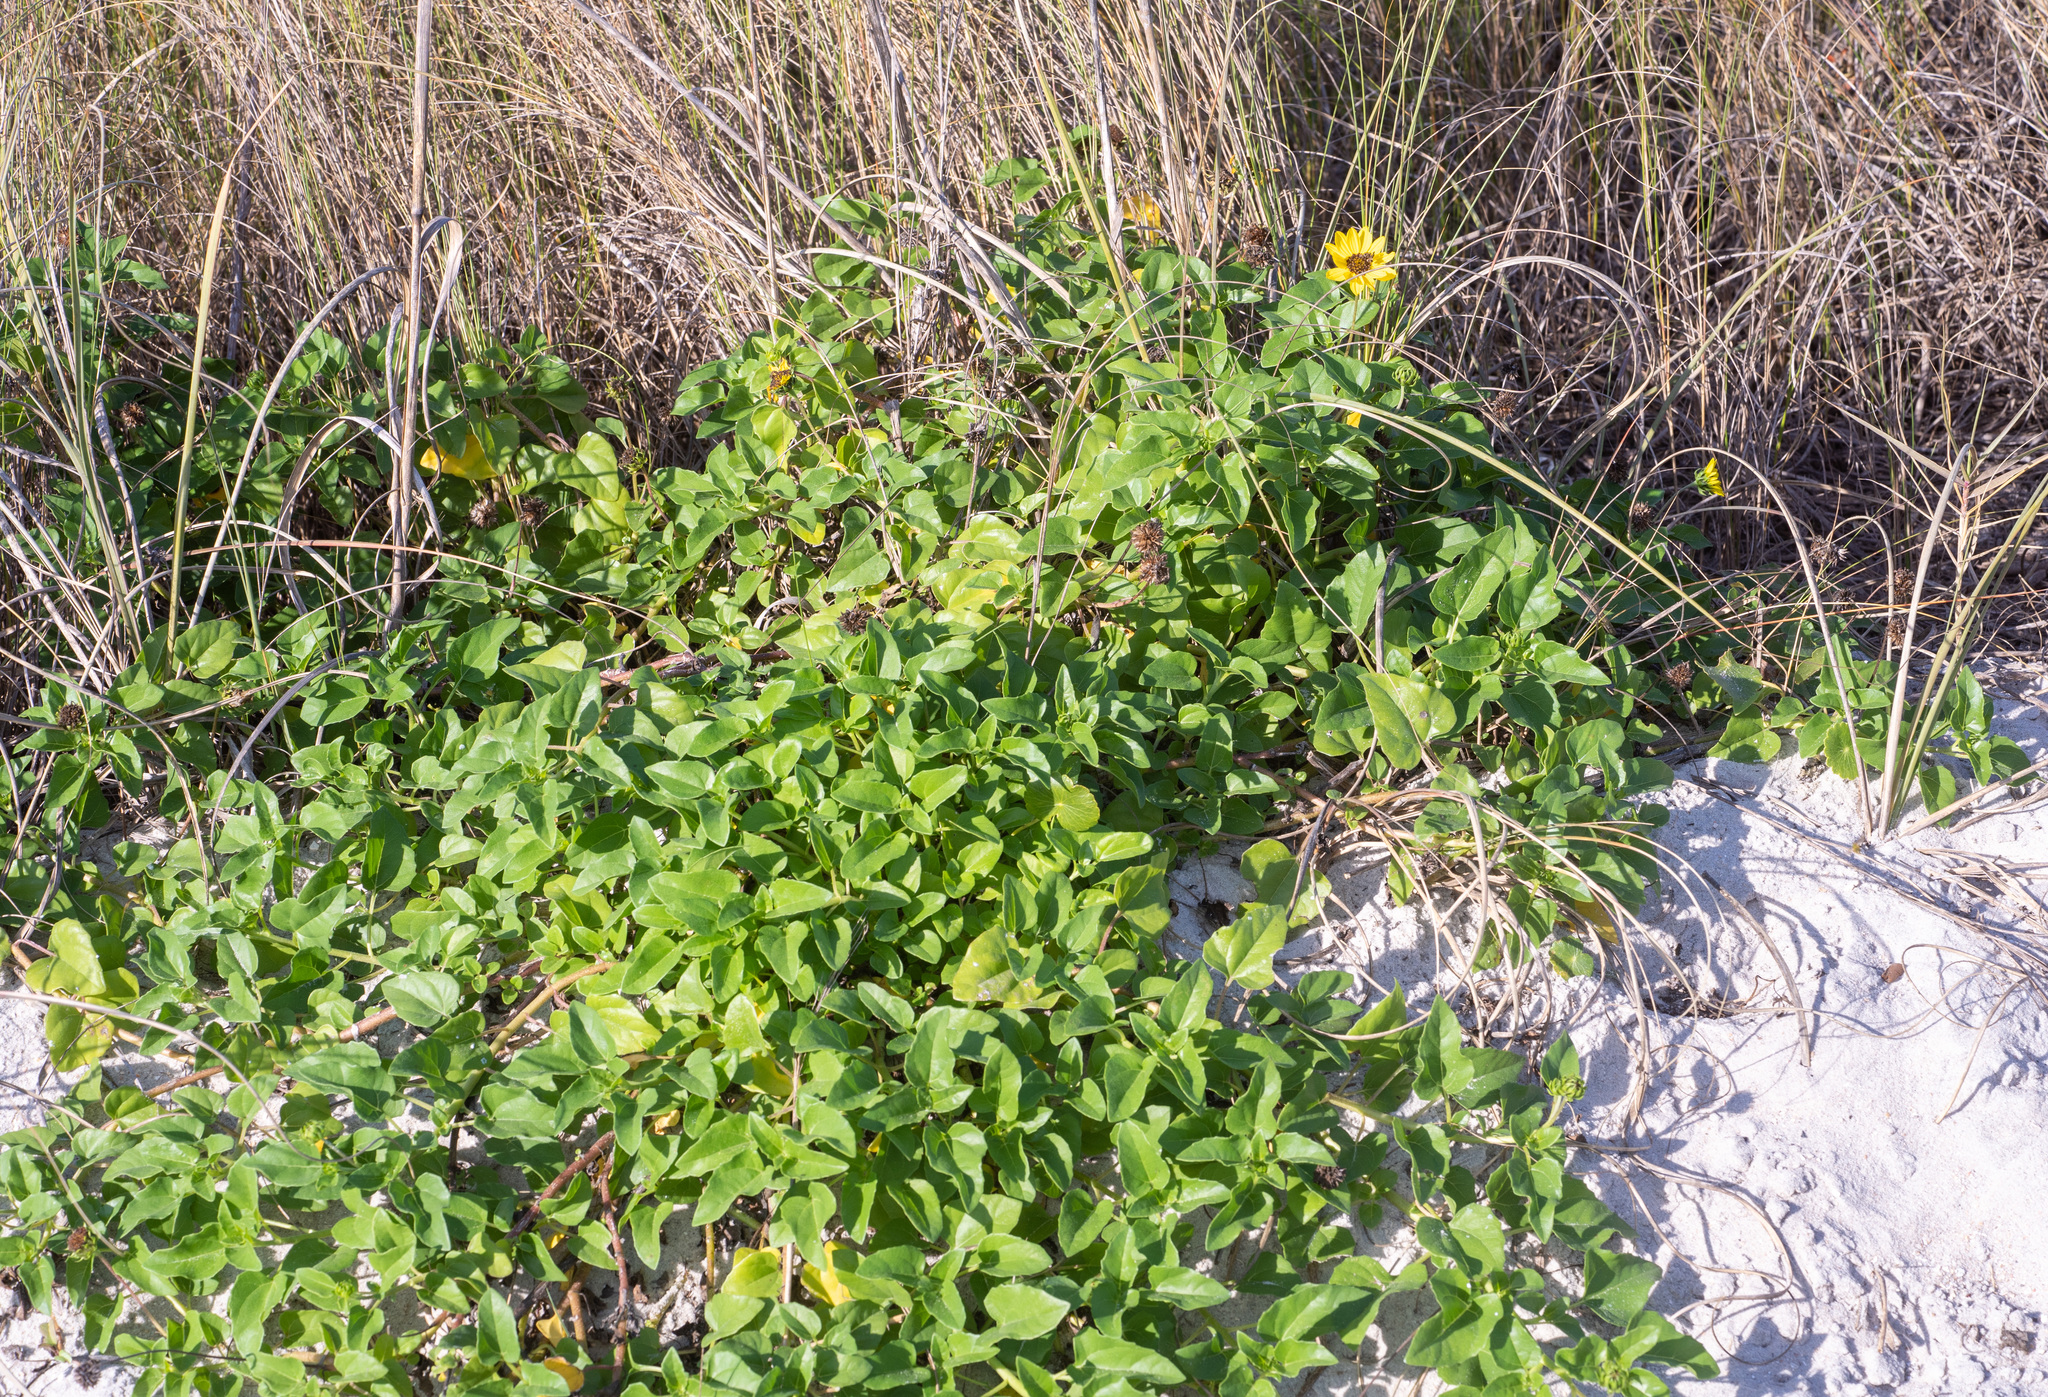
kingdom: Plantae
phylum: Tracheophyta
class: Magnoliopsida
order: Asterales
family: Asteraceae
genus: Helianthus
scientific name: Helianthus debilis
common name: Weak sunflower
